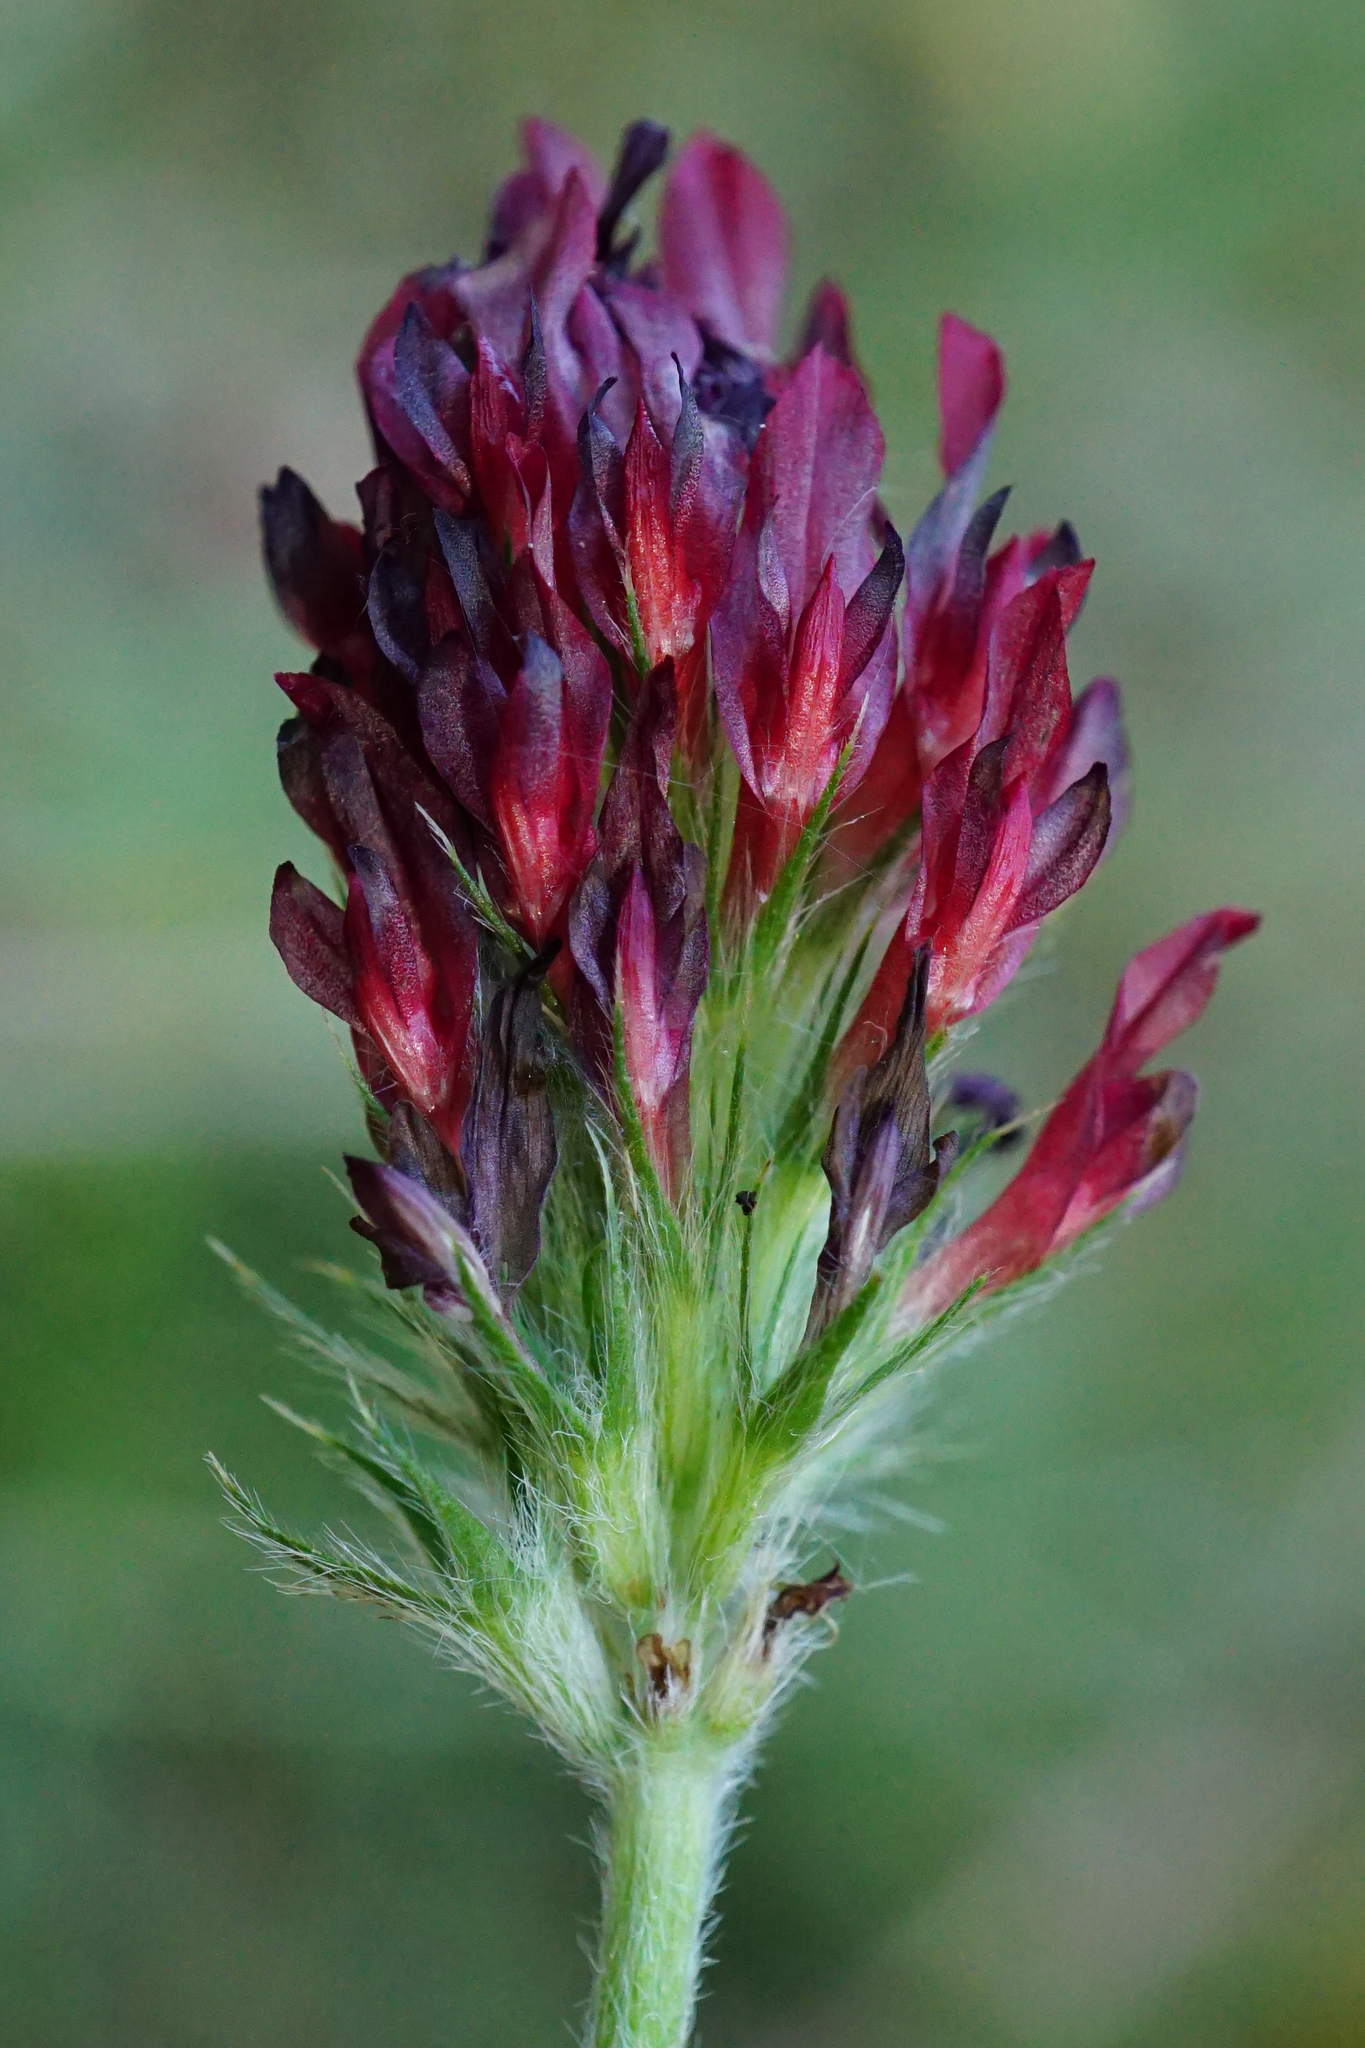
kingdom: Plantae
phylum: Tracheophyta
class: Magnoliopsida
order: Fabales
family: Fabaceae
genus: Trifolium
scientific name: Trifolium incarnatum
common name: Crimson clover
